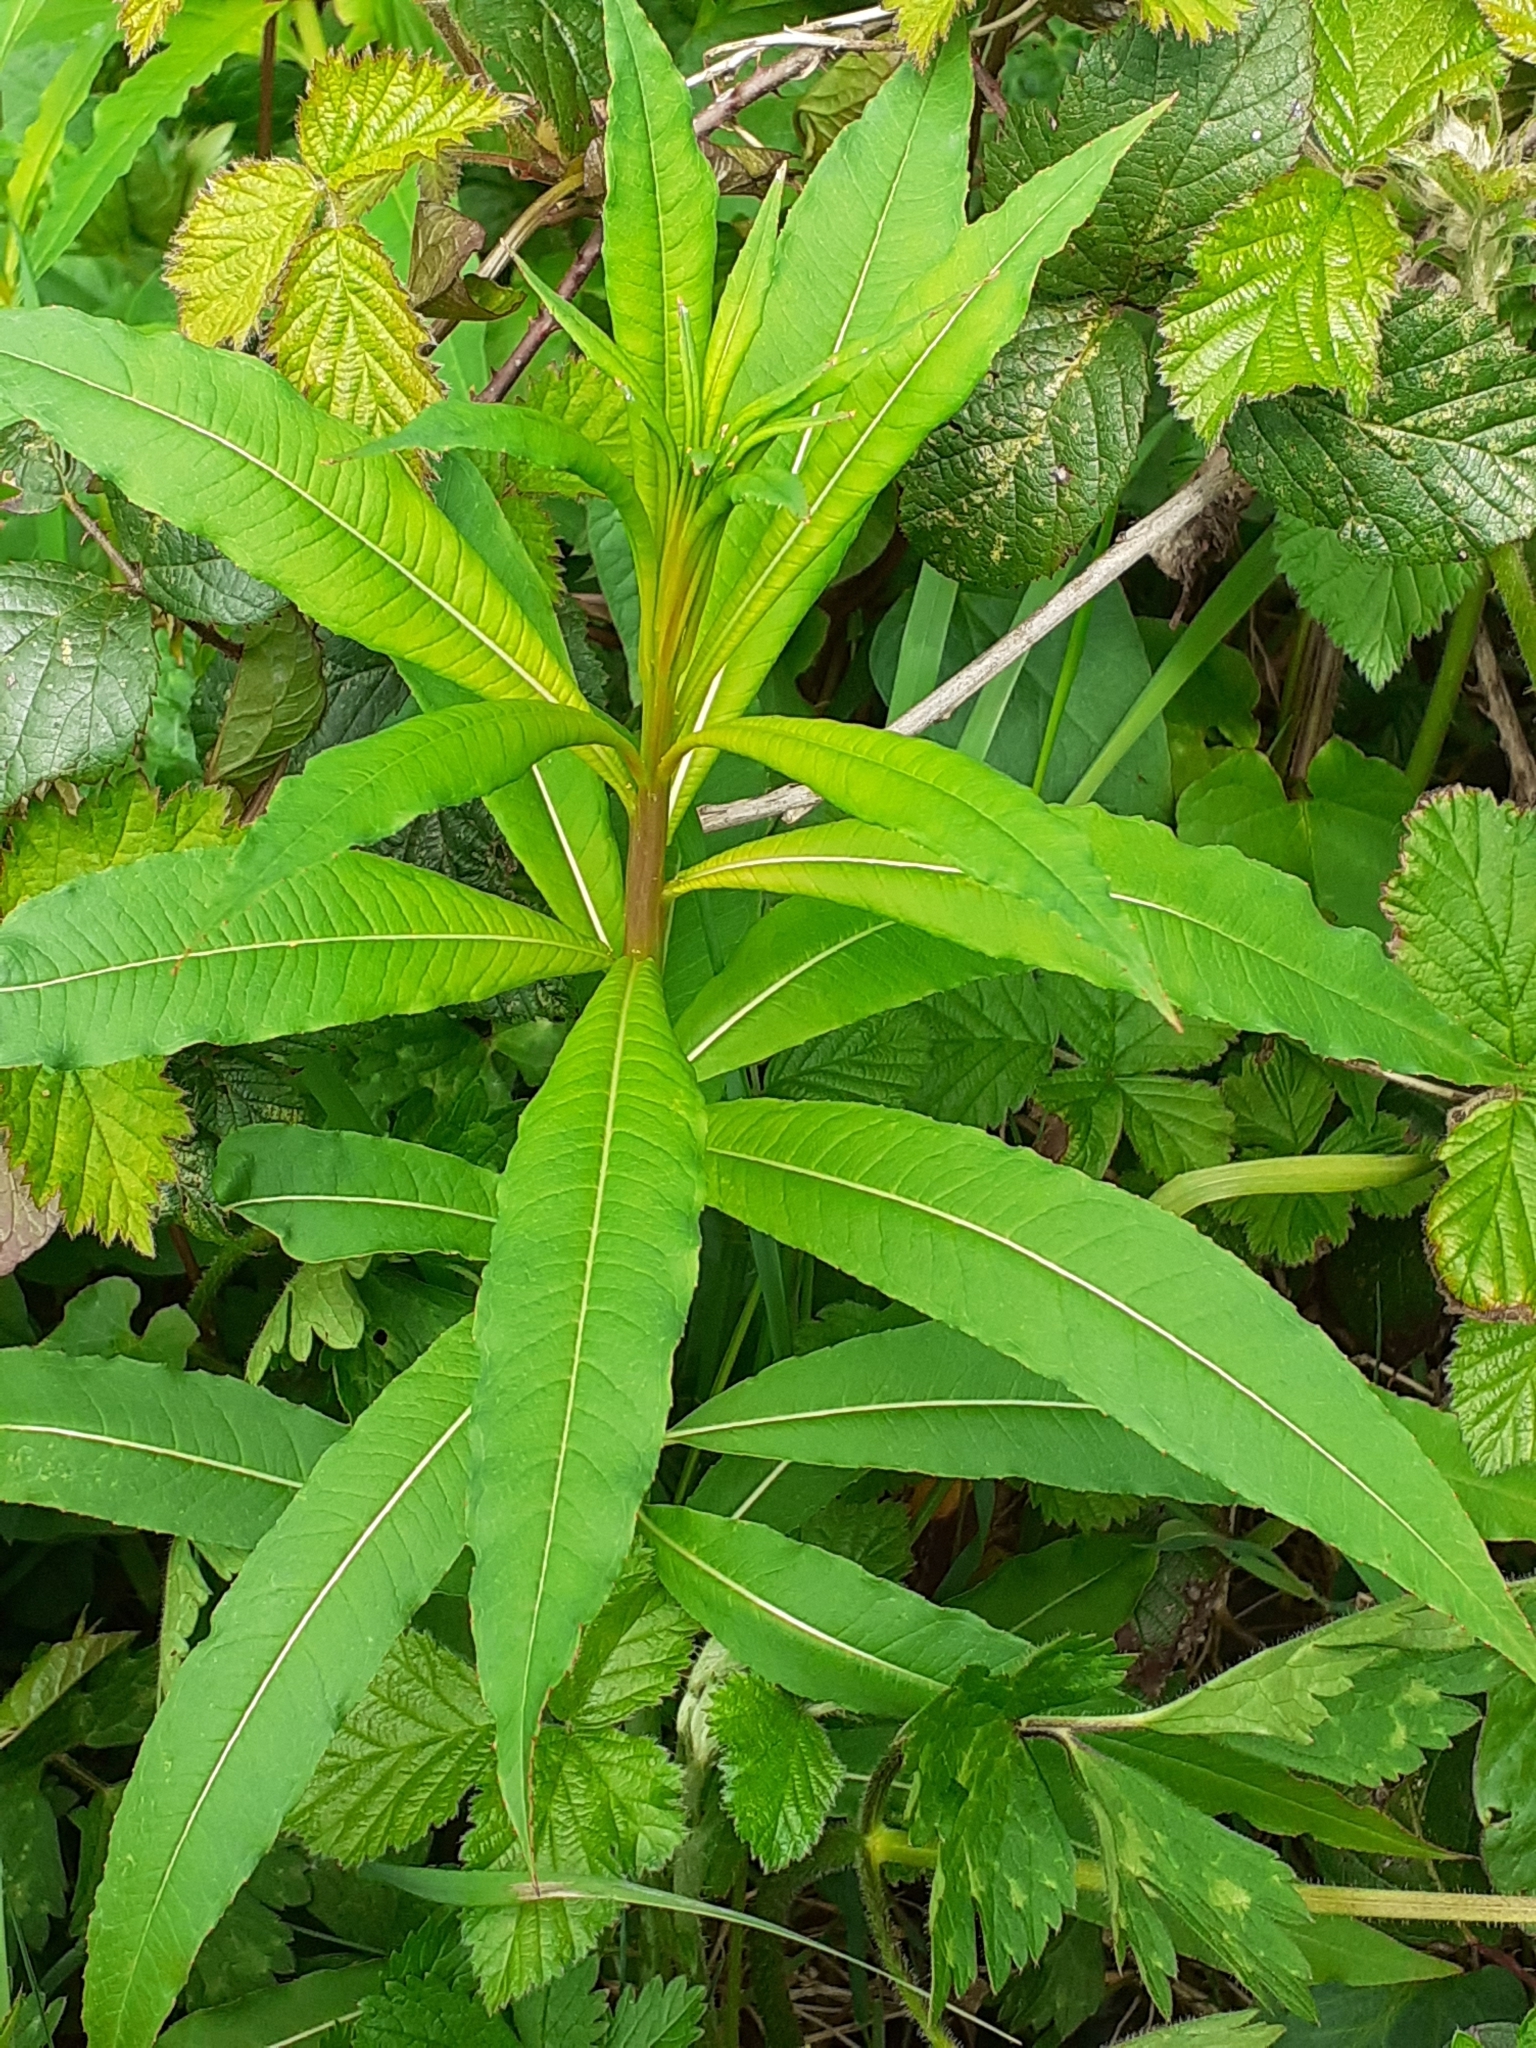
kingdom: Plantae
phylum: Tracheophyta
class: Magnoliopsida
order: Myrtales
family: Onagraceae
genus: Chamaenerion
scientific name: Chamaenerion angustifolium
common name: Fireweed
